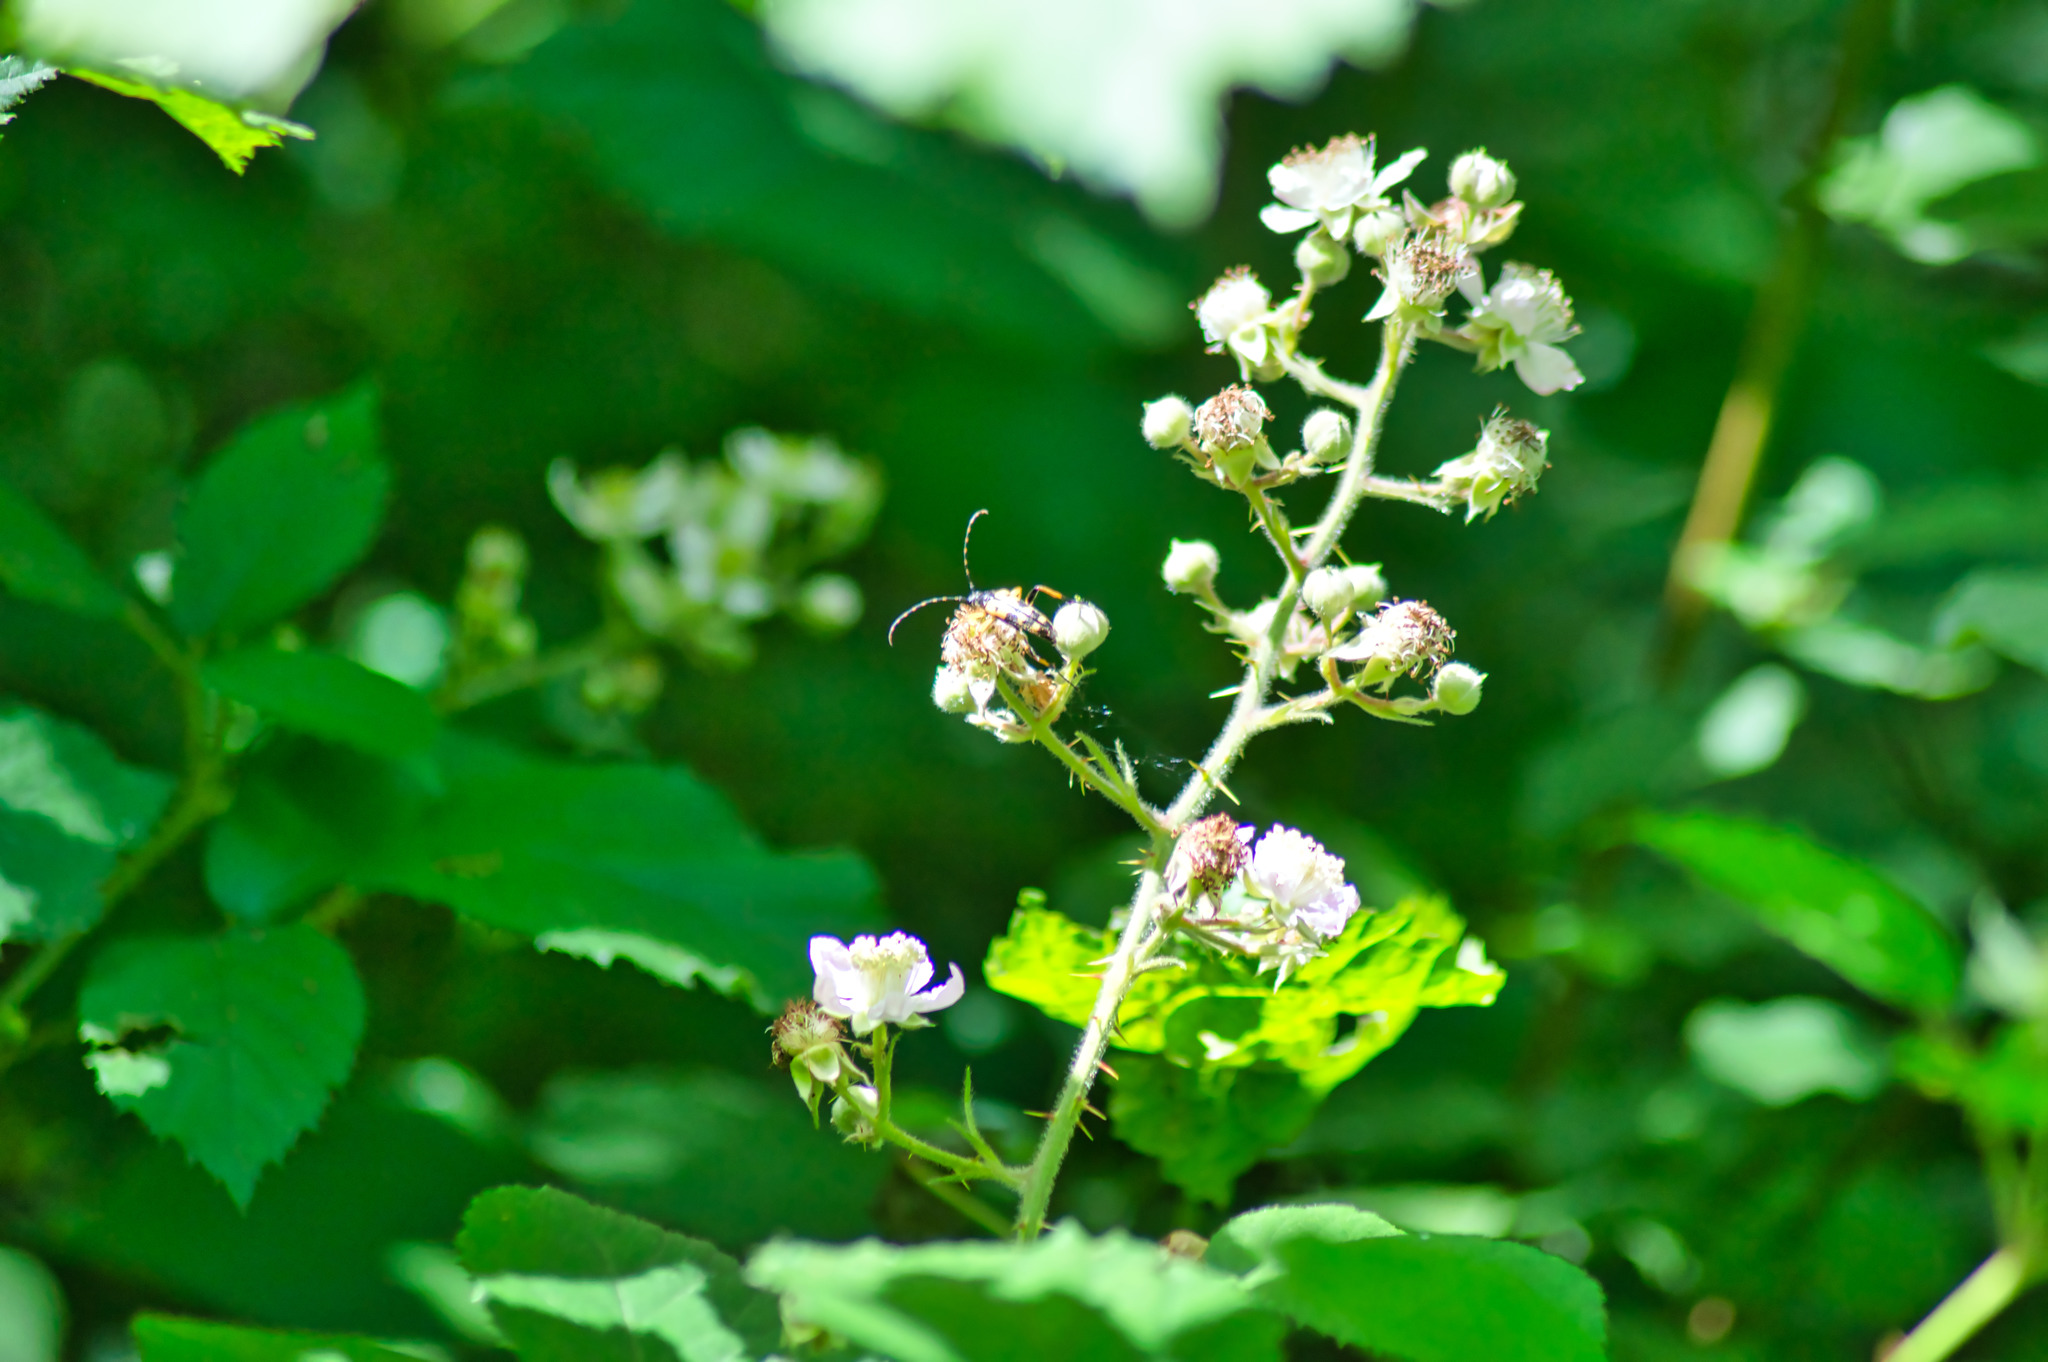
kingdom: Animalia
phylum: Arthropoda
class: Insecta
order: Coleoptera
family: Cerambycidae
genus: Rutpela
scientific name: Rutpela maculata
